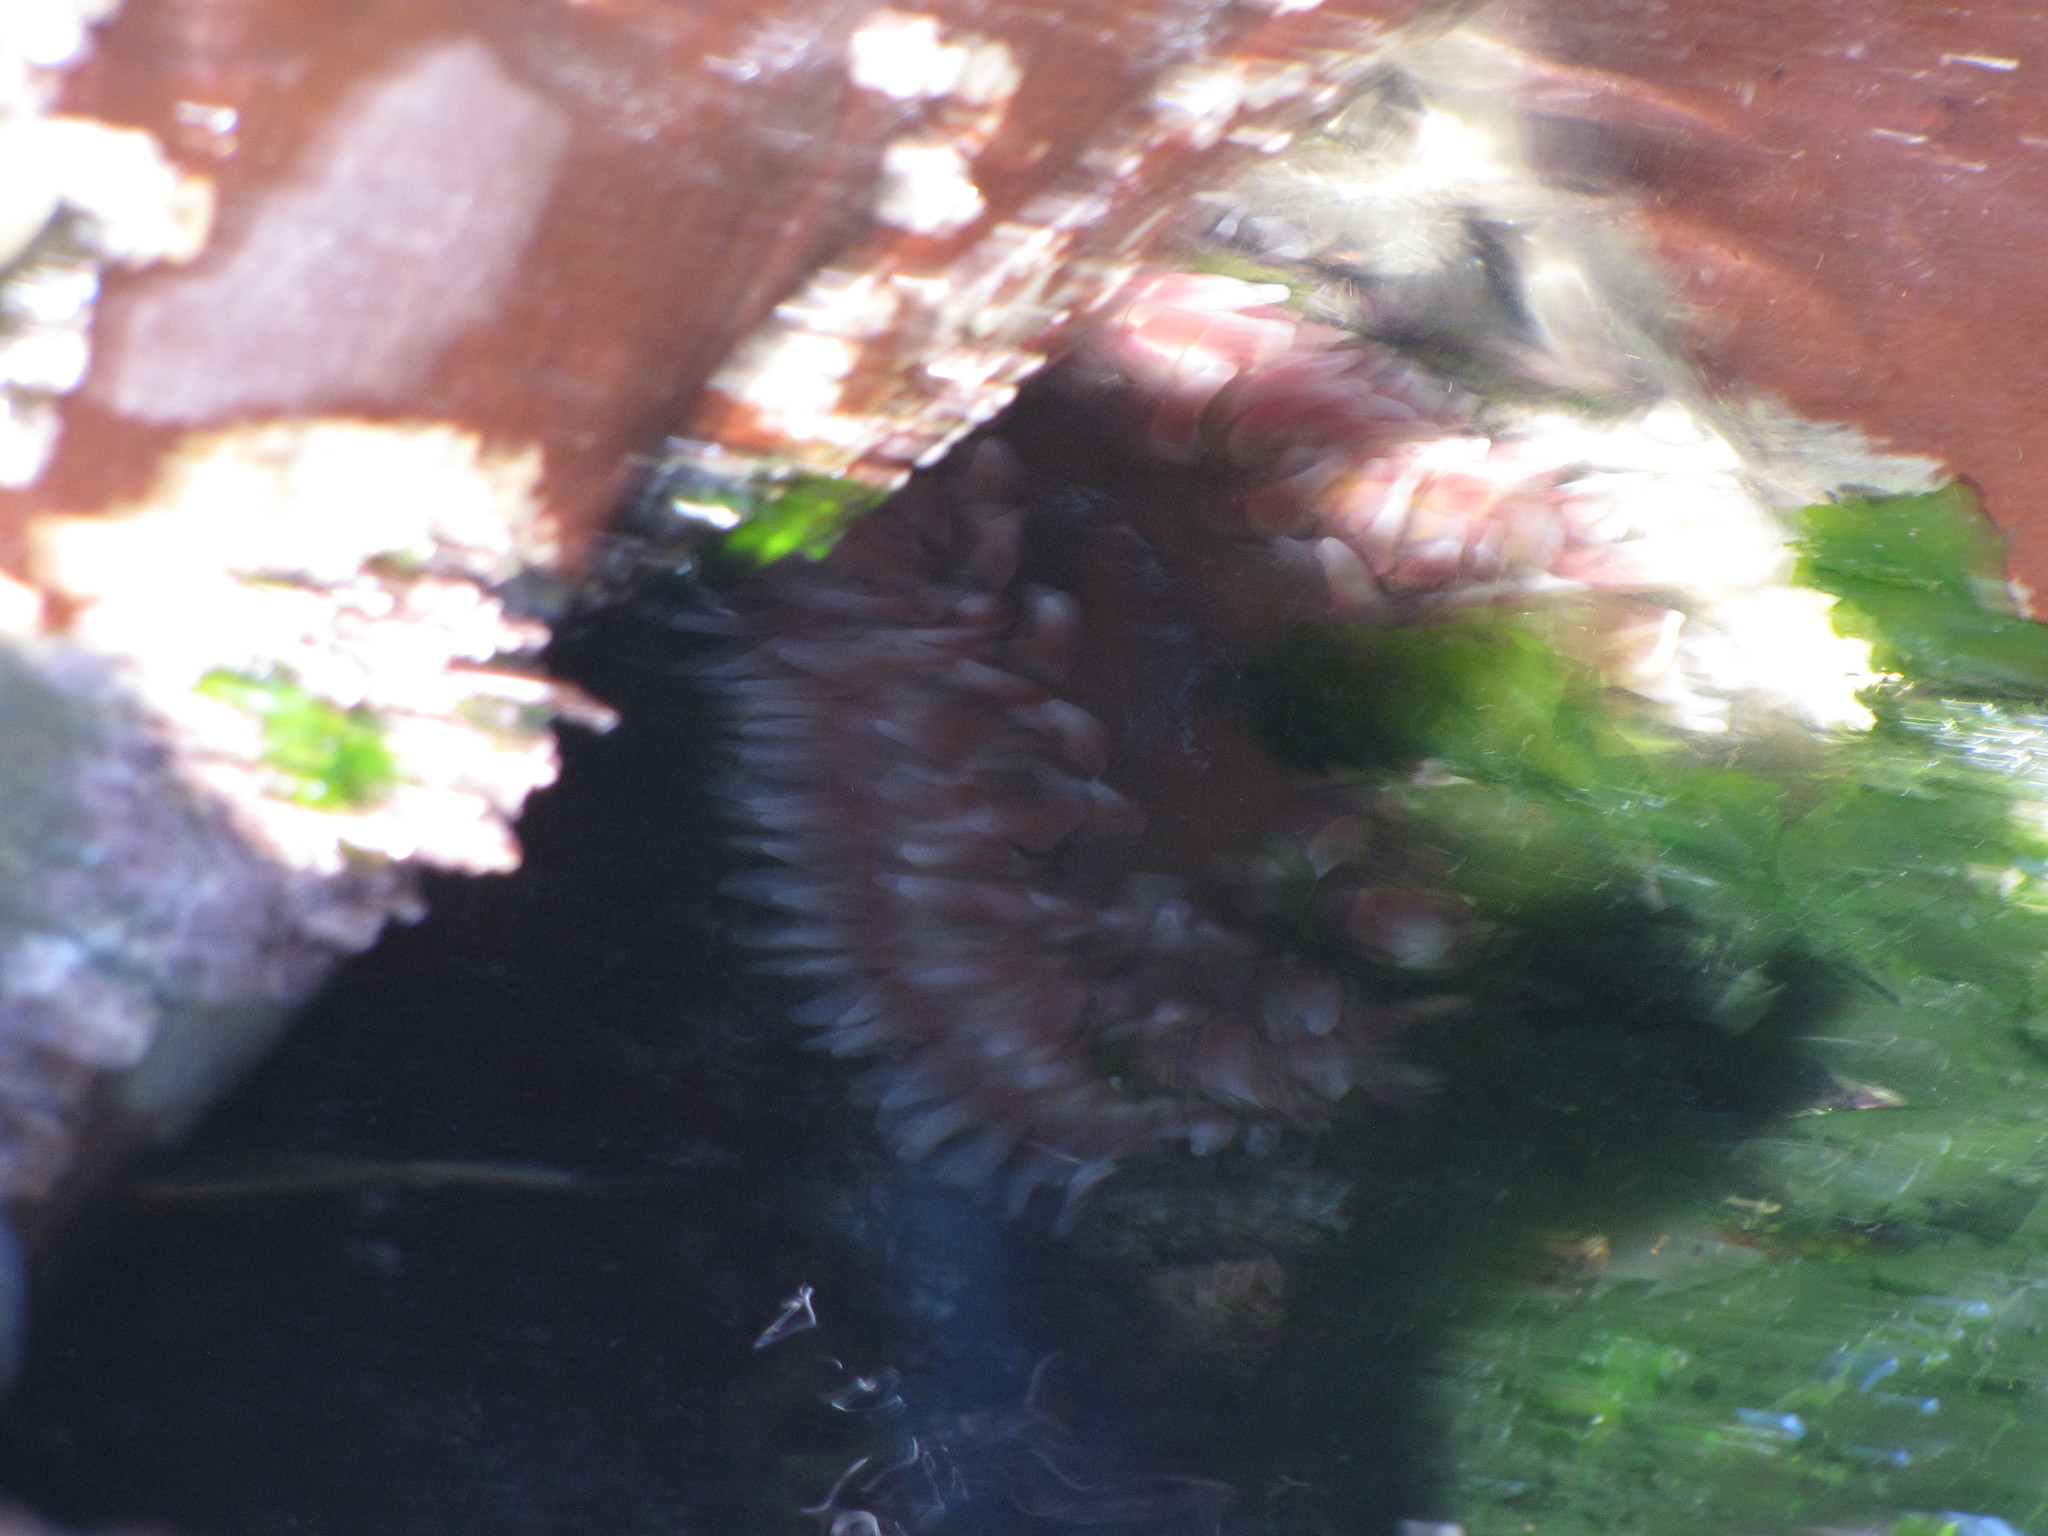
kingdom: Animalia
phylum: Cnidaria
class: Anthozoa
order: Actiniaria
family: Actiniidae
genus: Urticina
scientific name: Urticina clandestina
